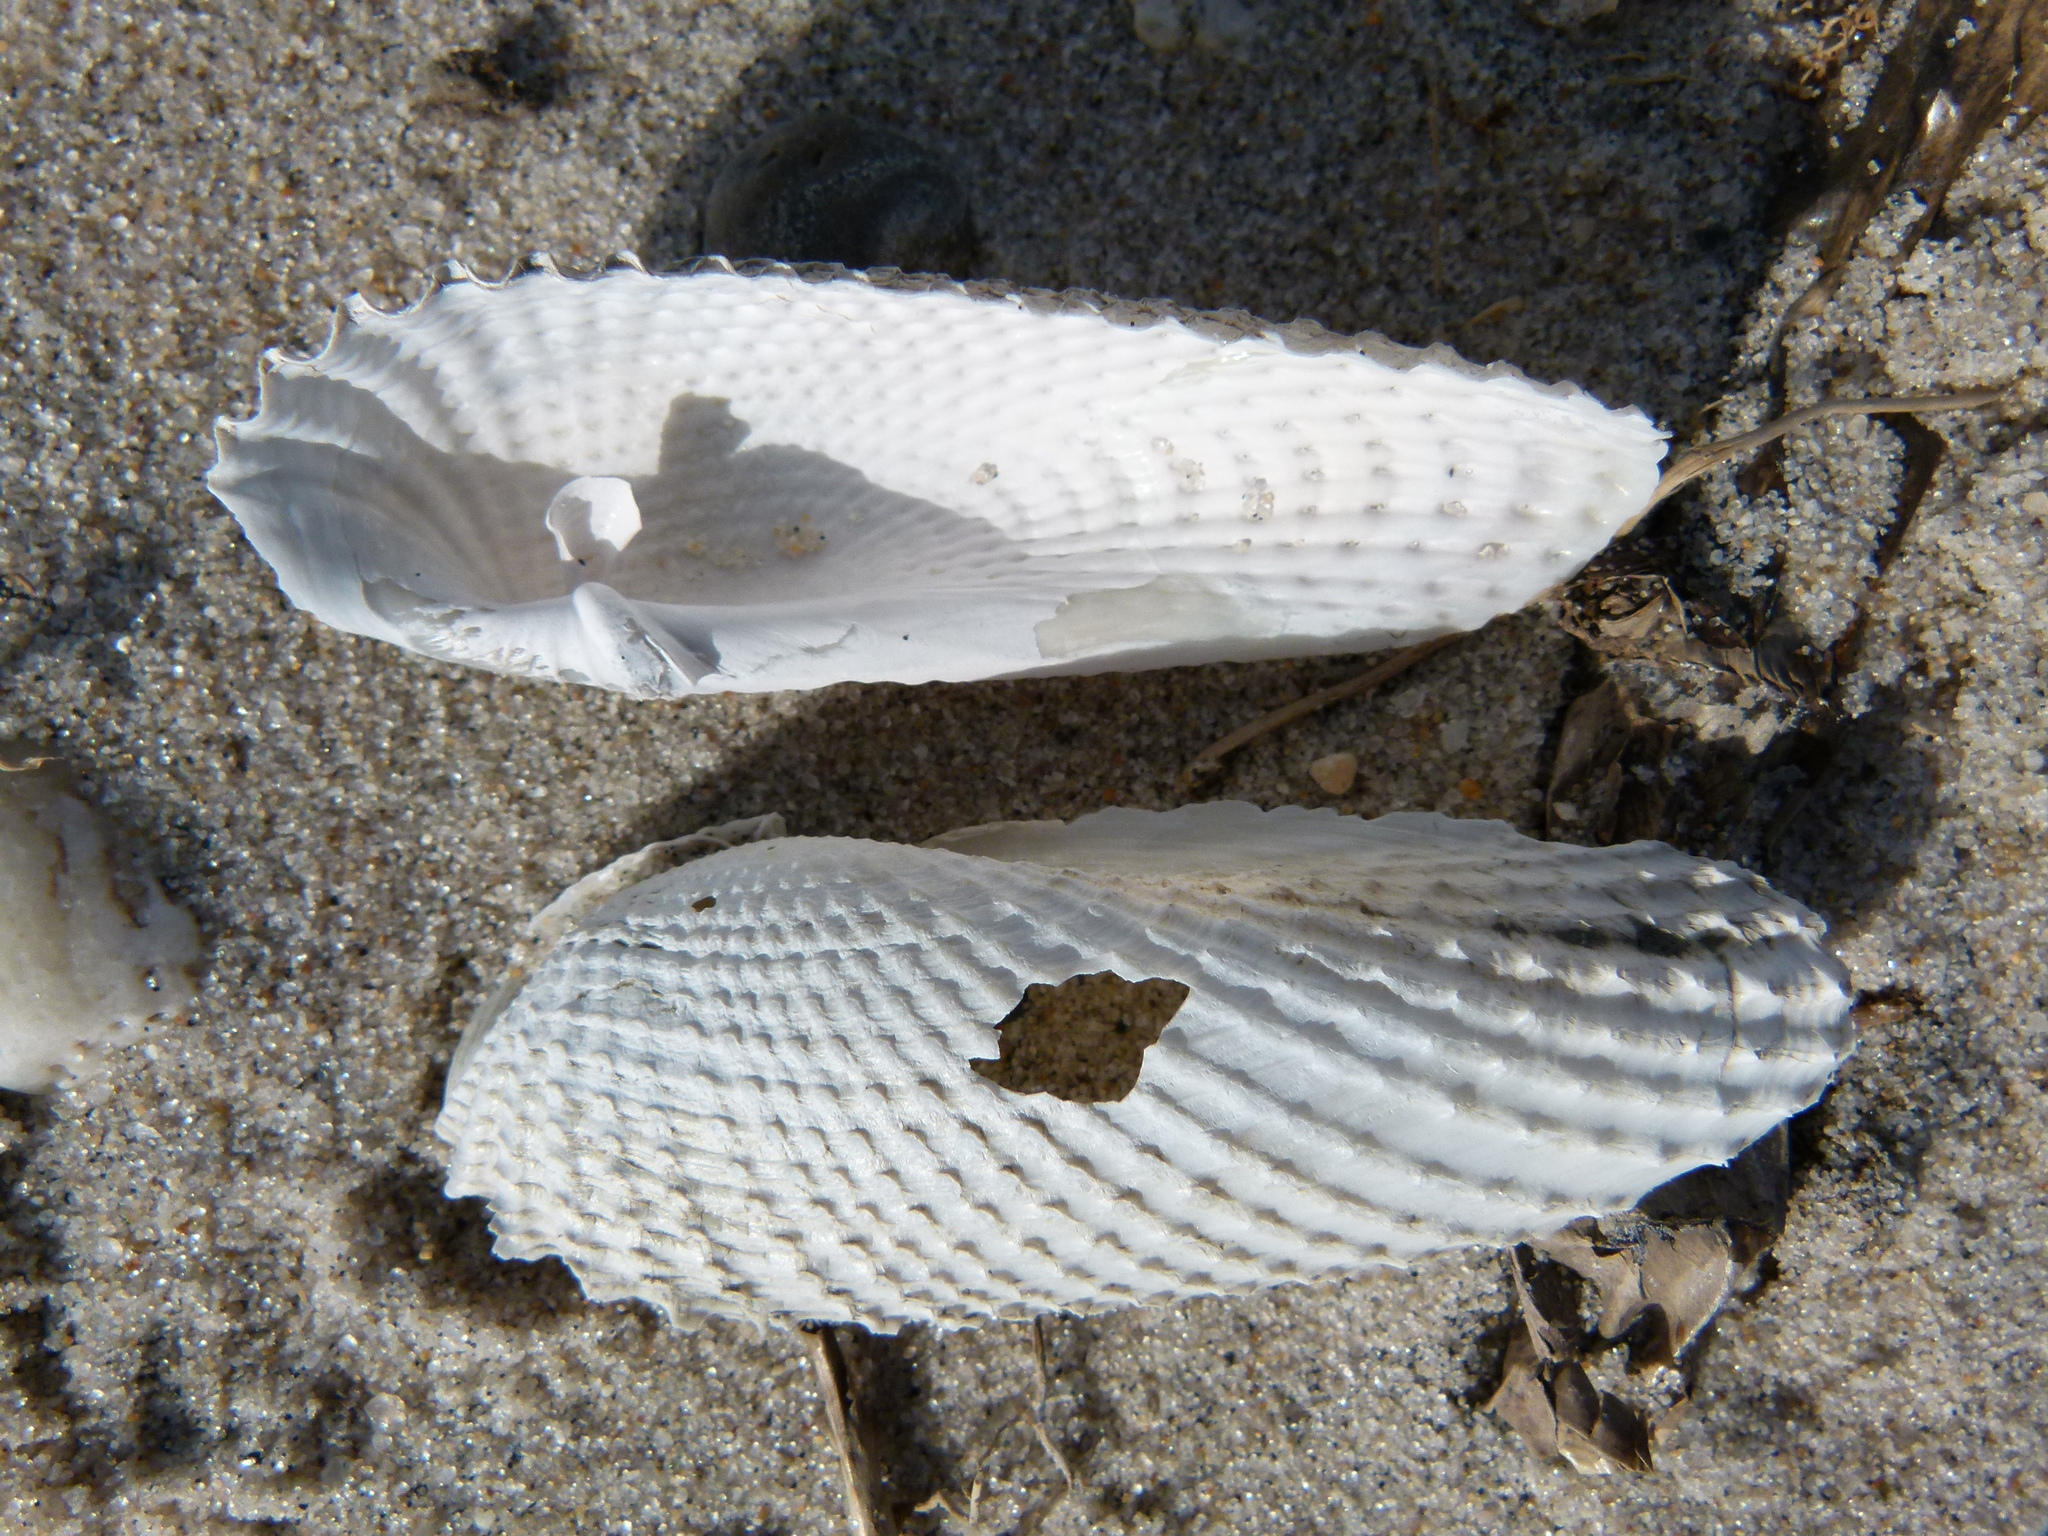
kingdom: Animalia
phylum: Mollusca
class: Bivalvia
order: Myida
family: Pholadidae
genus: Cyrtopleura
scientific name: Cyrtopleura costata
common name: Angel wing
